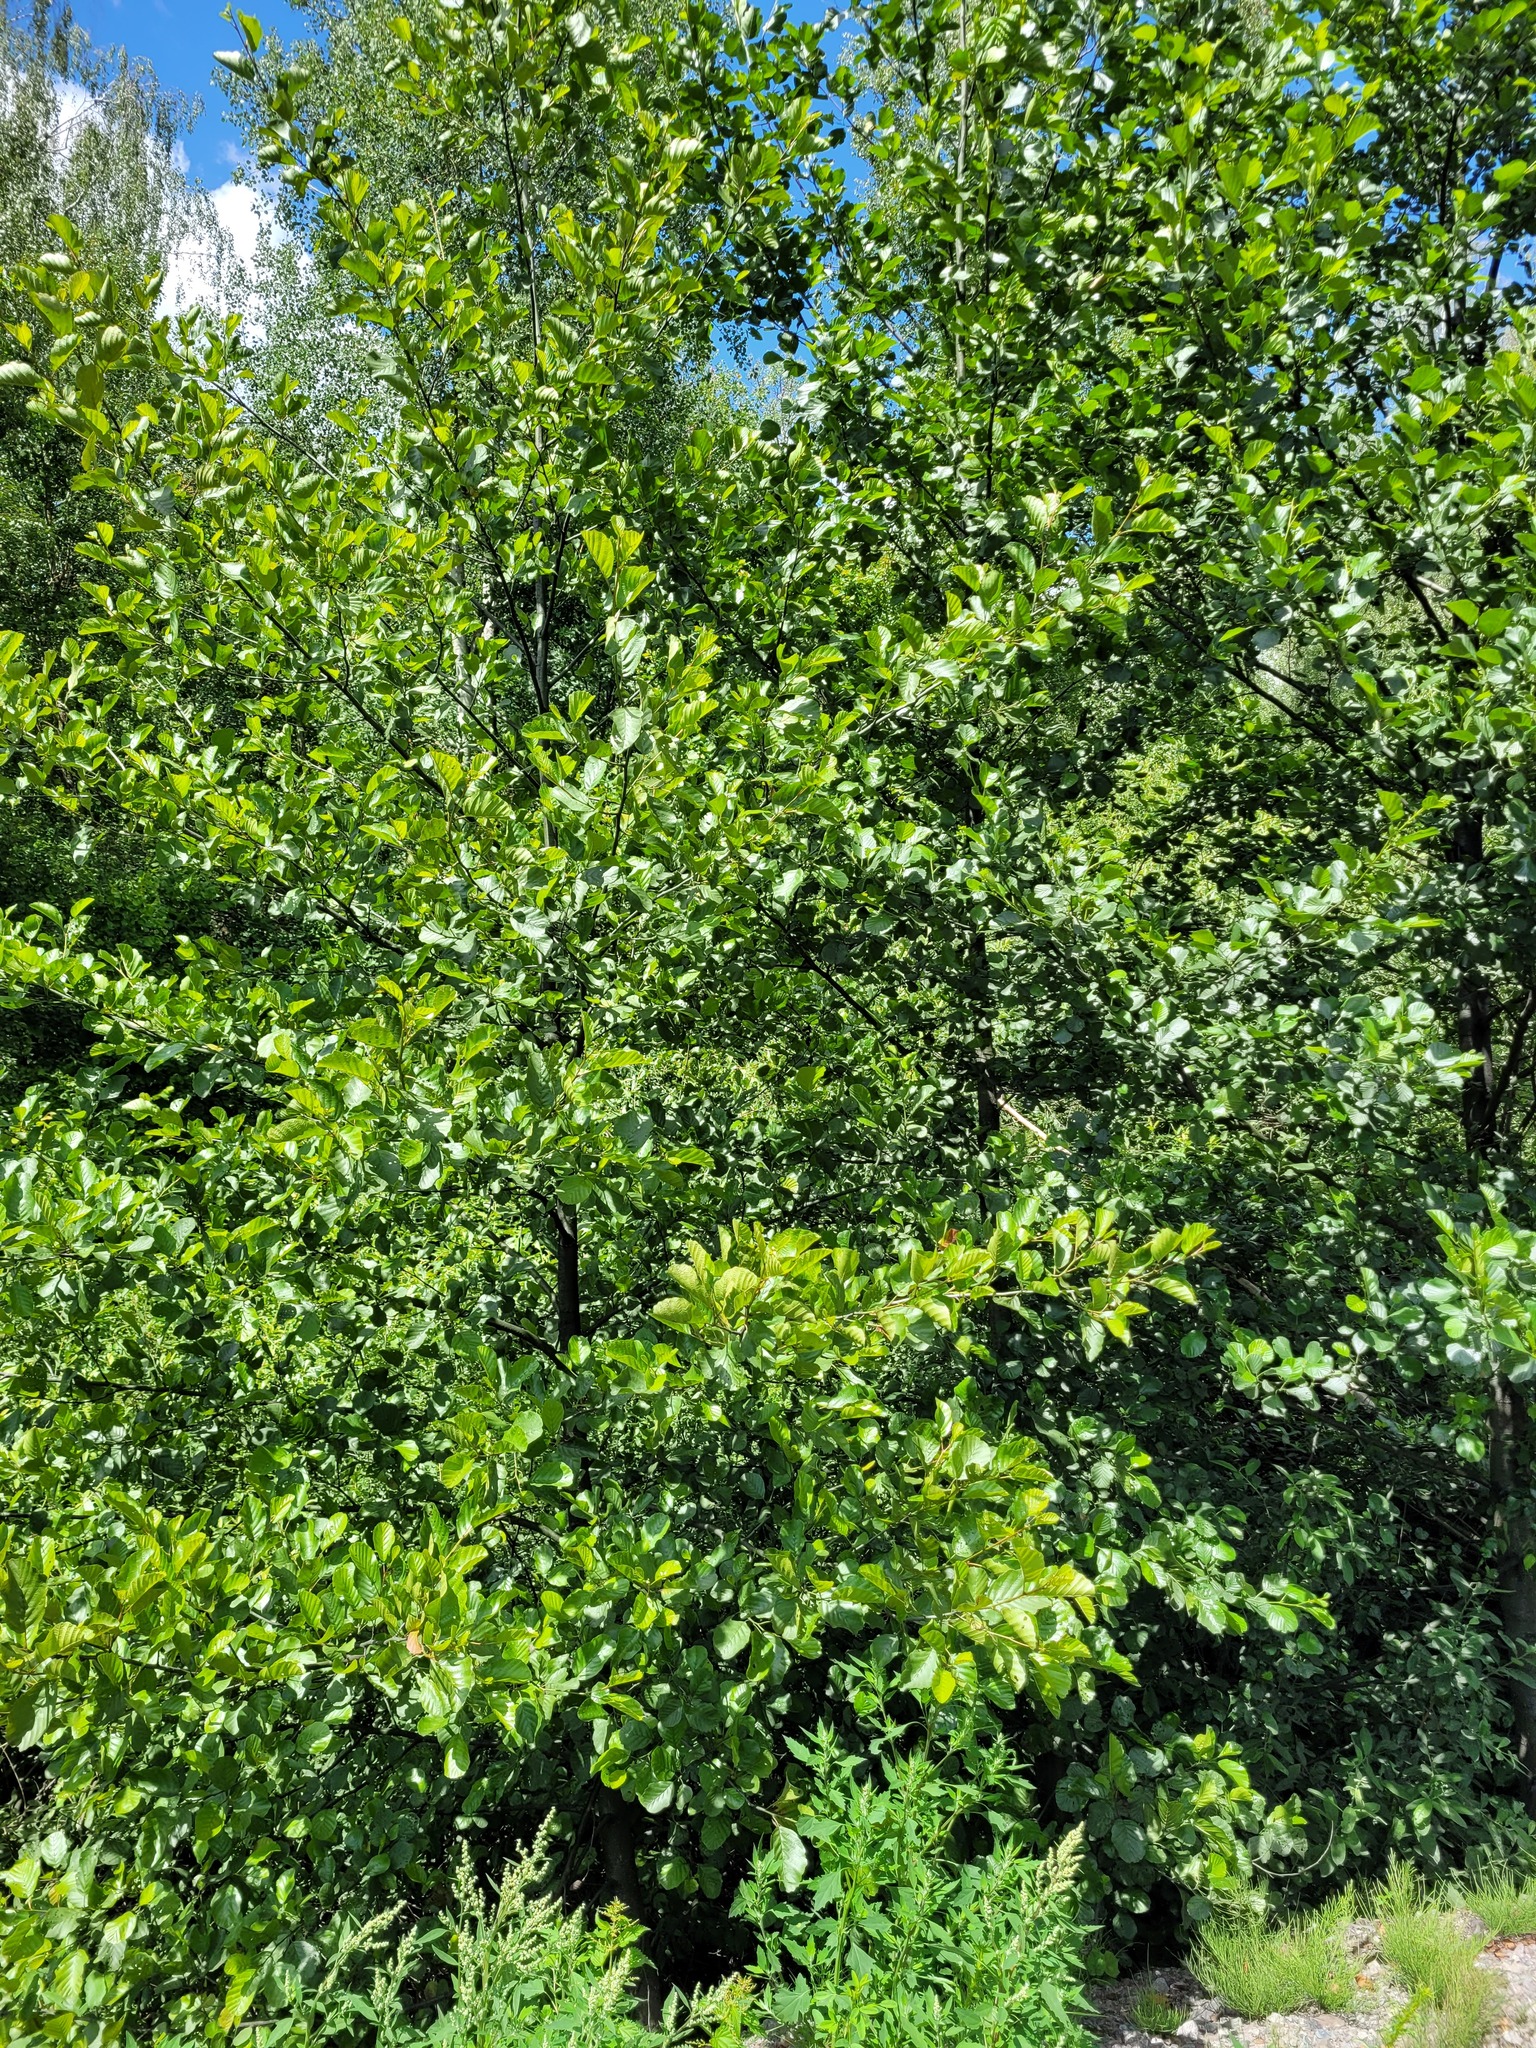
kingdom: Plantae
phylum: Tracheophyta
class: Magnoliopsida
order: Fagales
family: Betulaceae
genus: Alnus
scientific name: Alnus glutinosa
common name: Black alder
